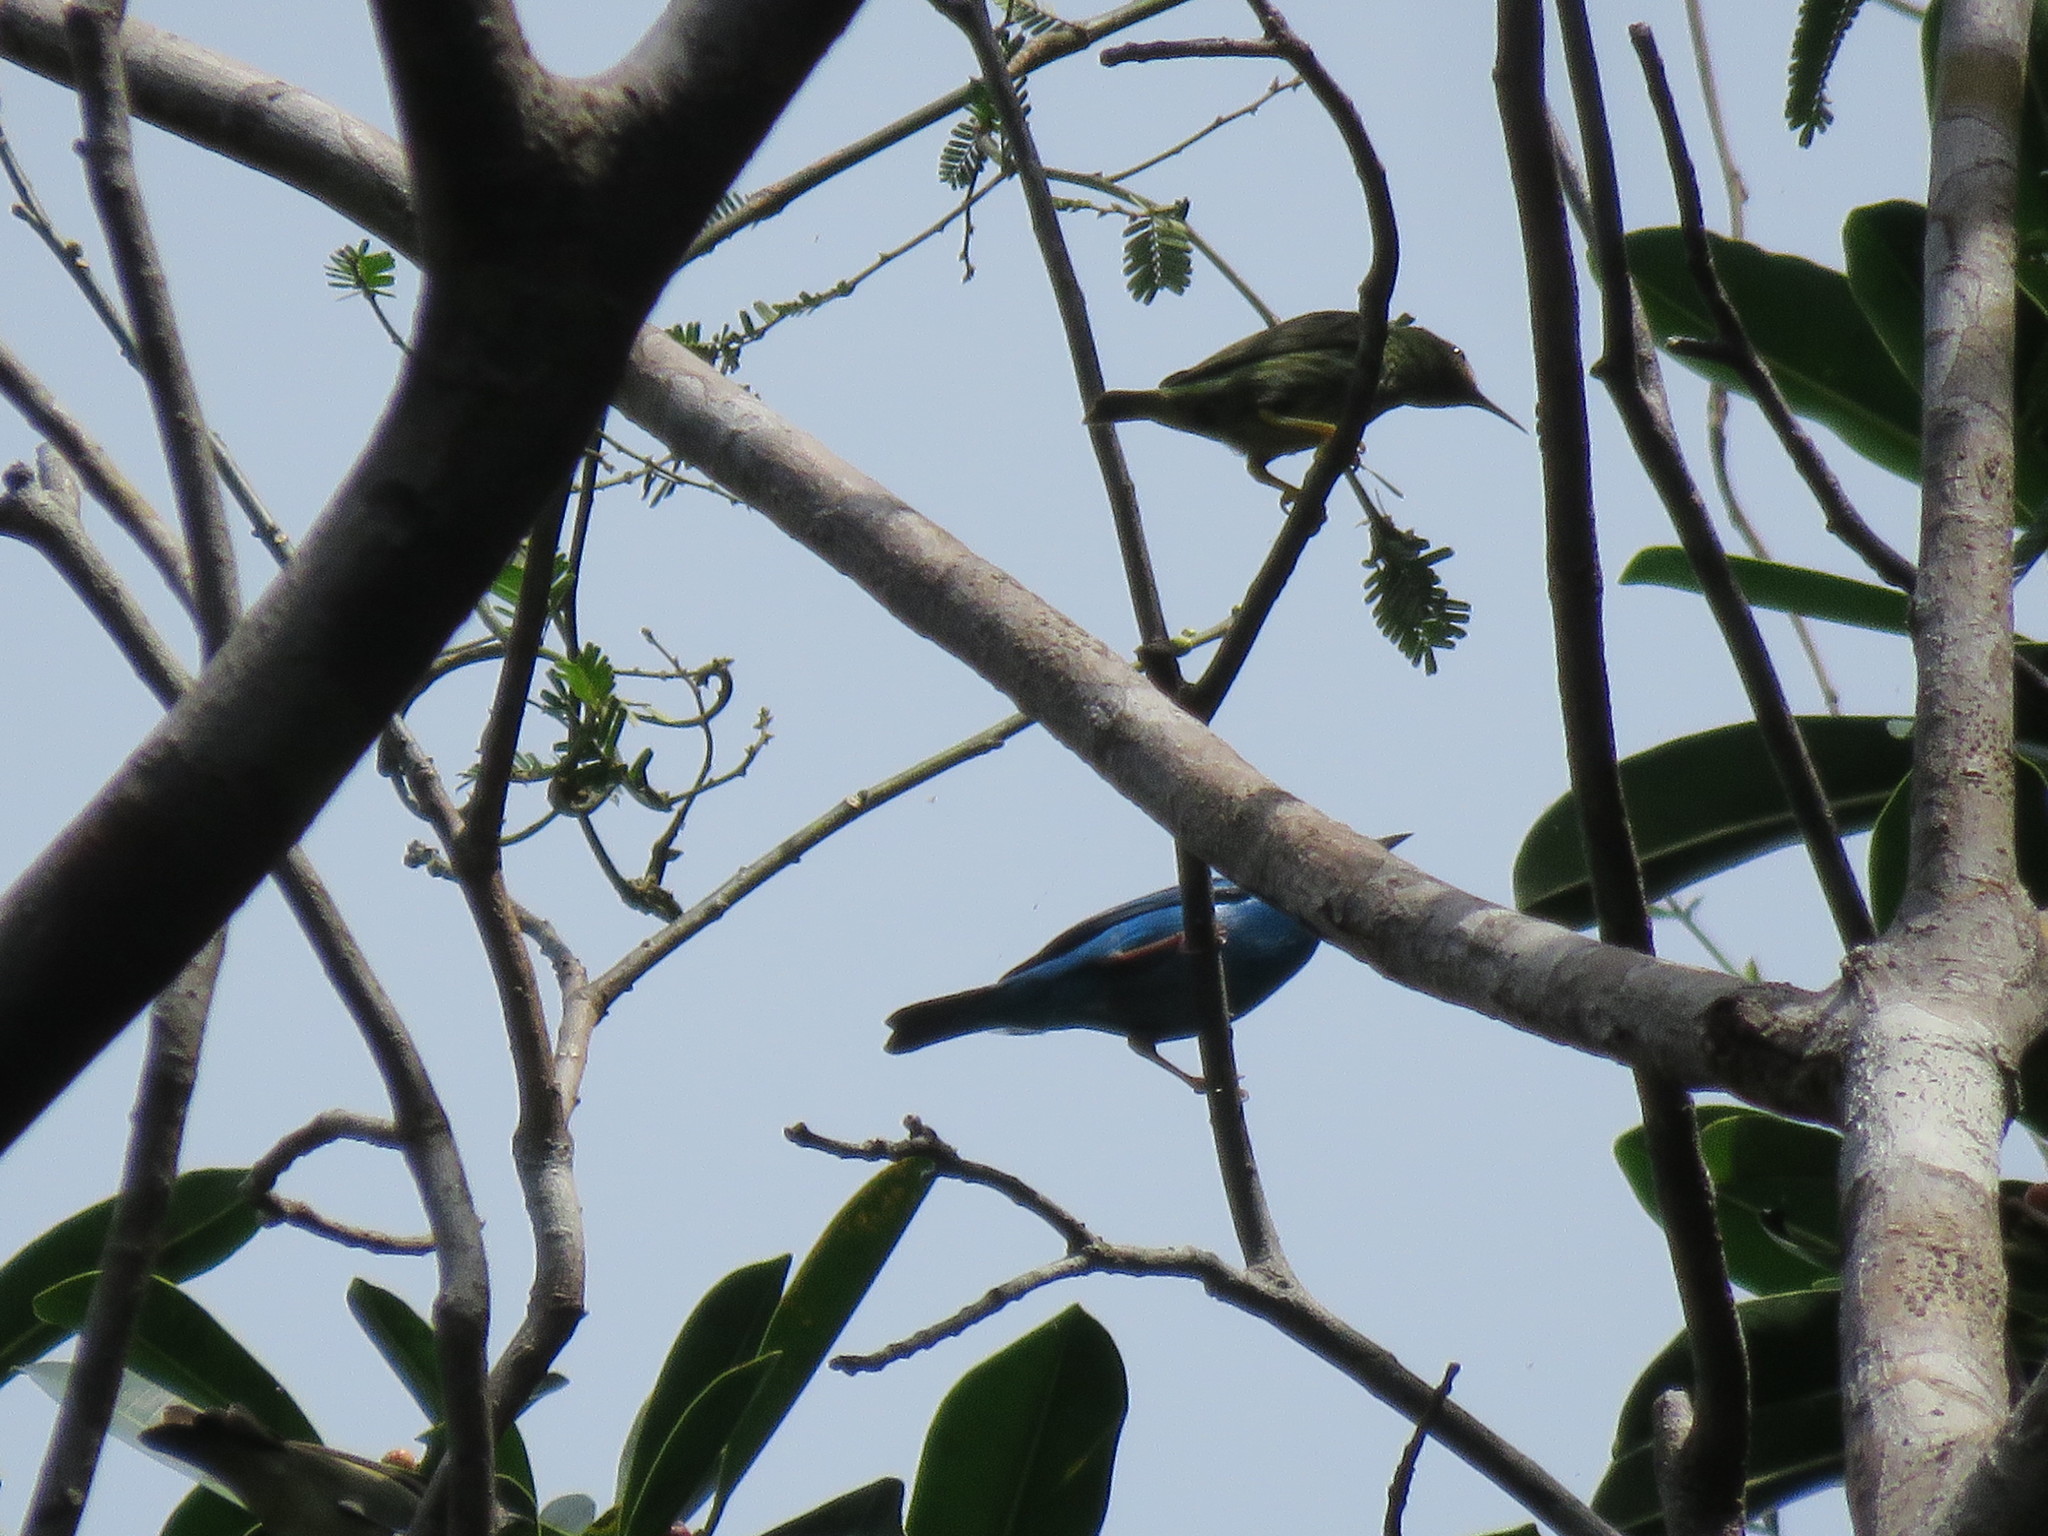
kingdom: Animalia
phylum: Chordata
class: Aves
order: Passeriformes
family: Thraupidae
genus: Cyanerpes
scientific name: Cyanerpes caeruleus
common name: Purple honeycreeper
